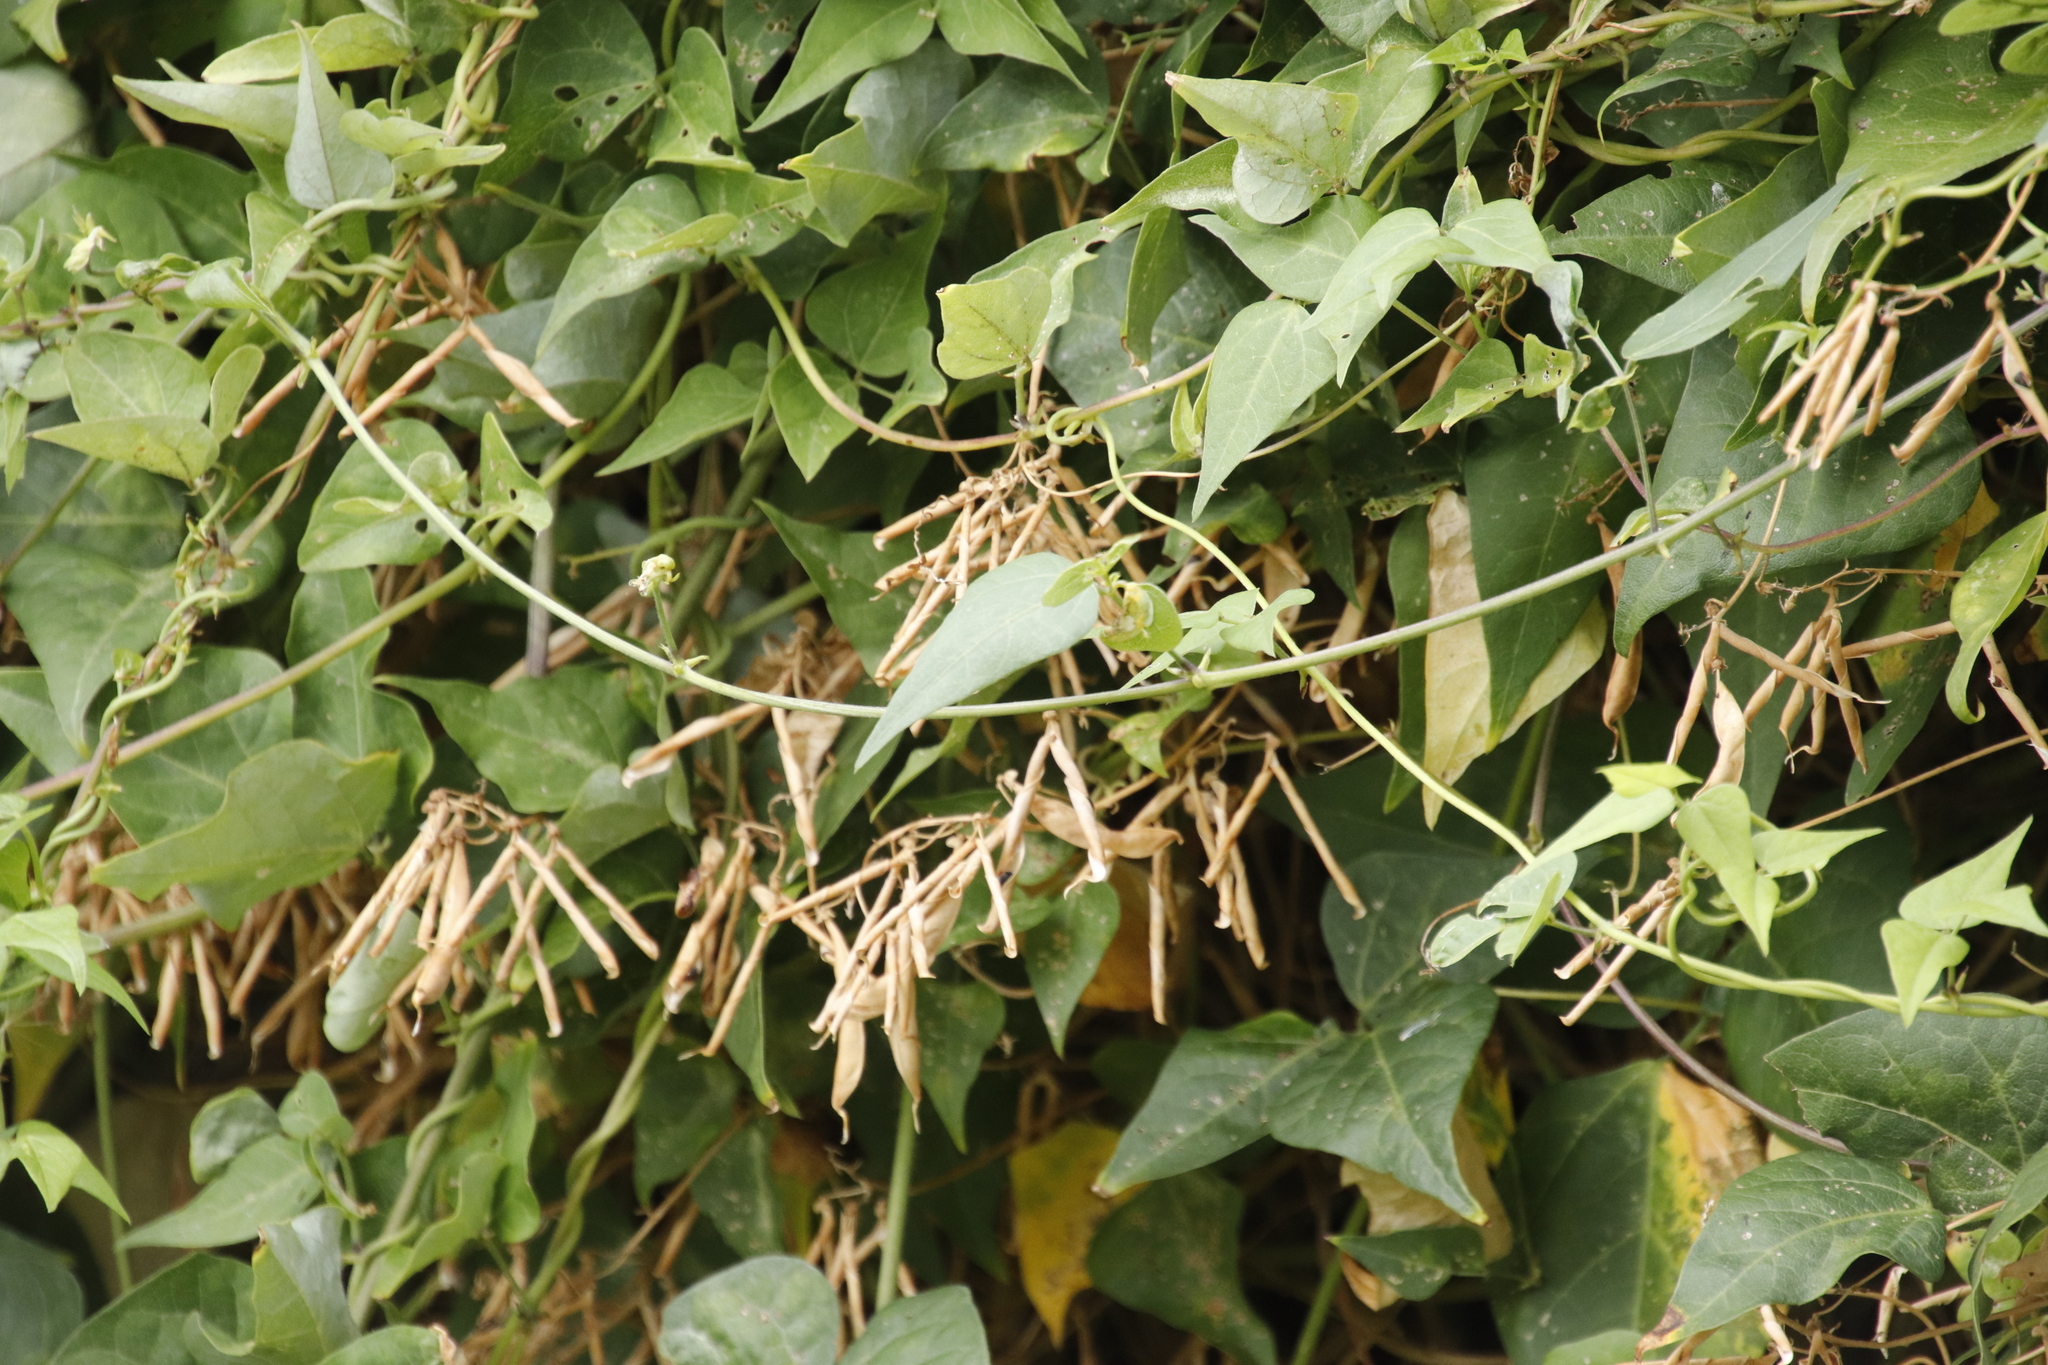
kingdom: Plantae
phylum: Tracheophyta
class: Magnoliopsida
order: Fabales
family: Fabaceae
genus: Dipogon
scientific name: Dipogon lignosus
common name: Okie bean
